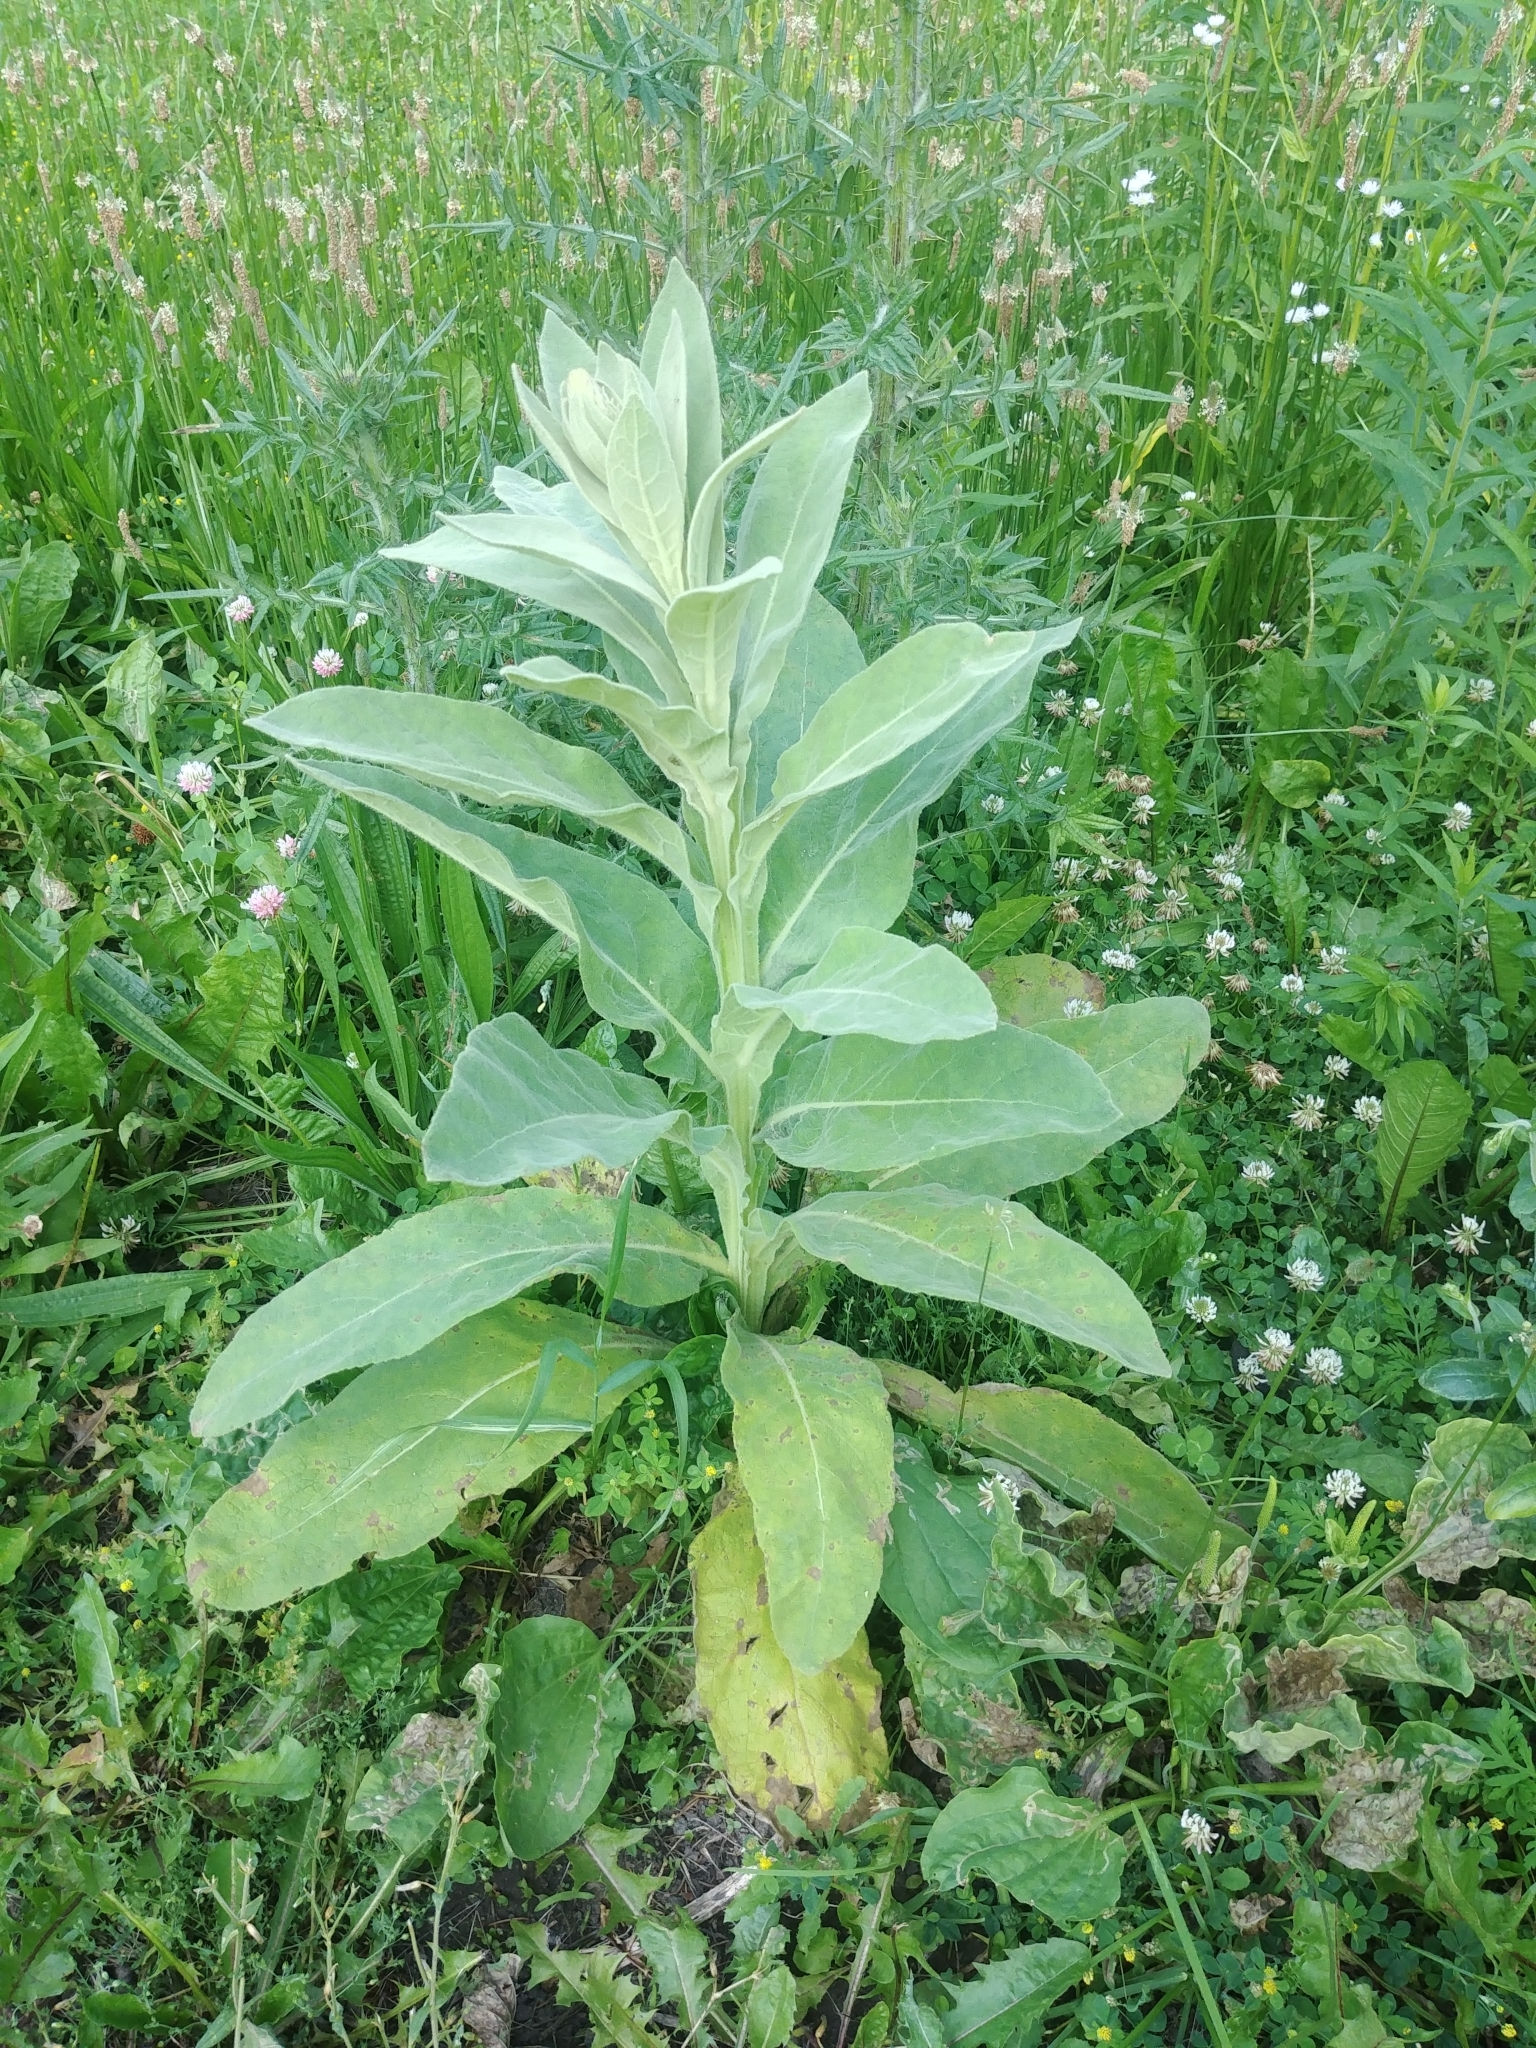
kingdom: Plantae
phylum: Tracheophyta
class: Magnoliopsida
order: Lamiales
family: Scrophulariaceae
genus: Verbascum
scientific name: Verbascum thapsus
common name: Common mullein
